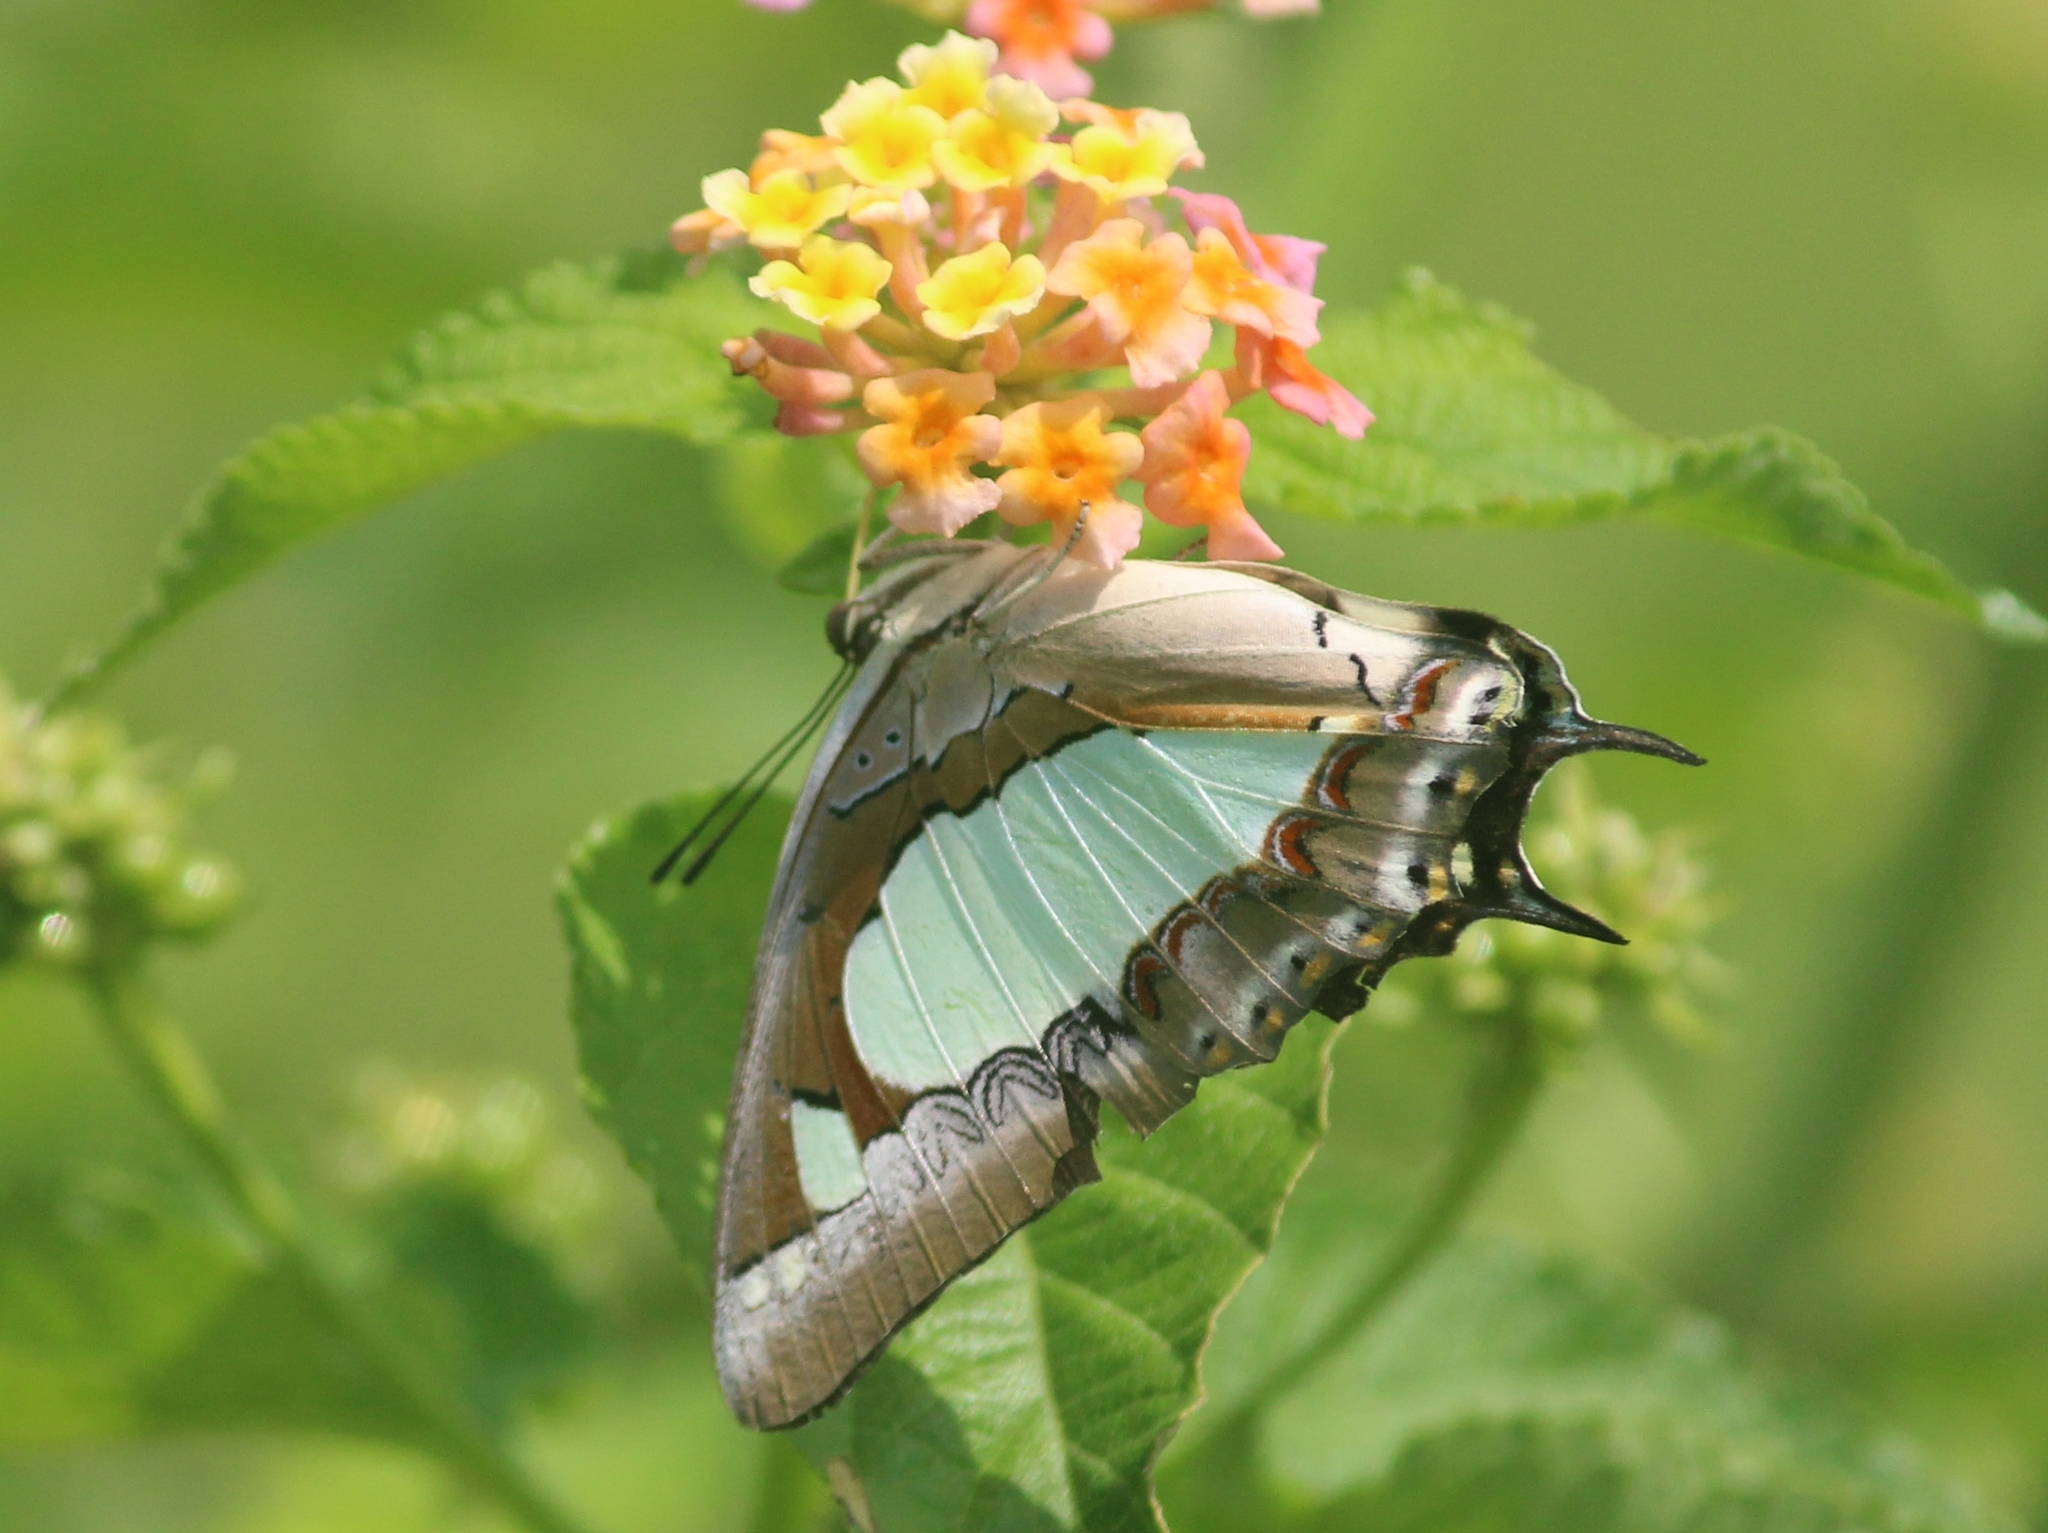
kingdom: Animalia
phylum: Arthropoda
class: Insecta
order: Lepidoptera
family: Nymphalidae
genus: Polyura
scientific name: Polyura agrarius
